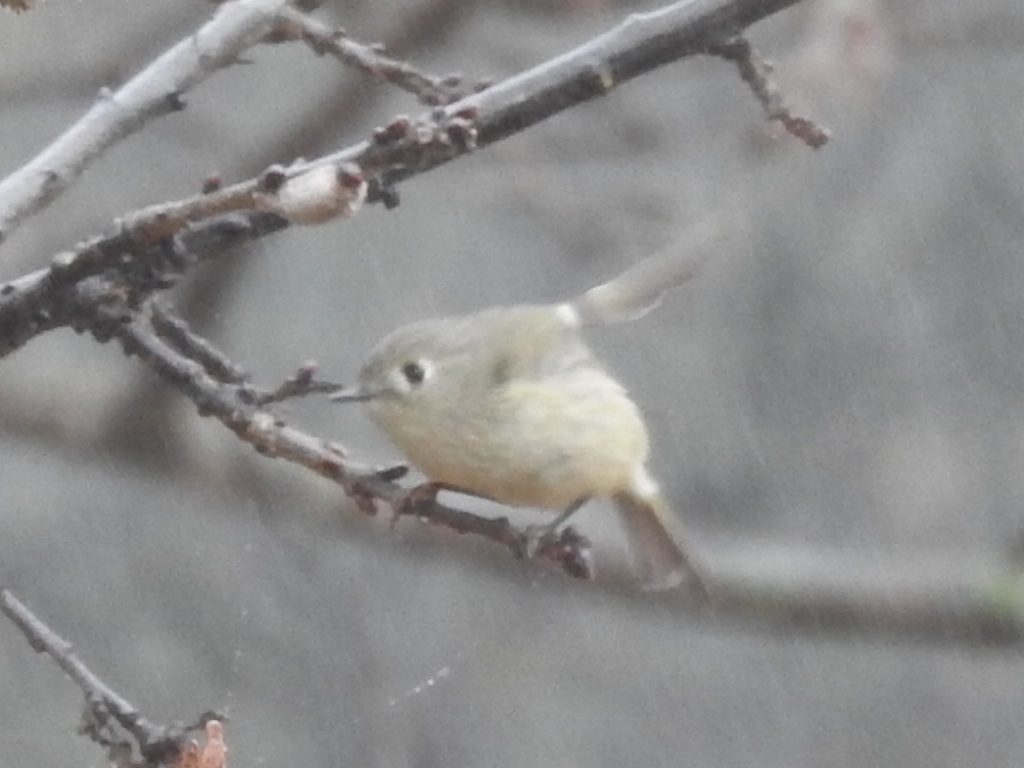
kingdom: Animalia
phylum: Chordata
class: Aves
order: Passeriformes
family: Regulidae
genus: Regulus
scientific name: Regulus calendula
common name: Ruby-crowned kinglet
